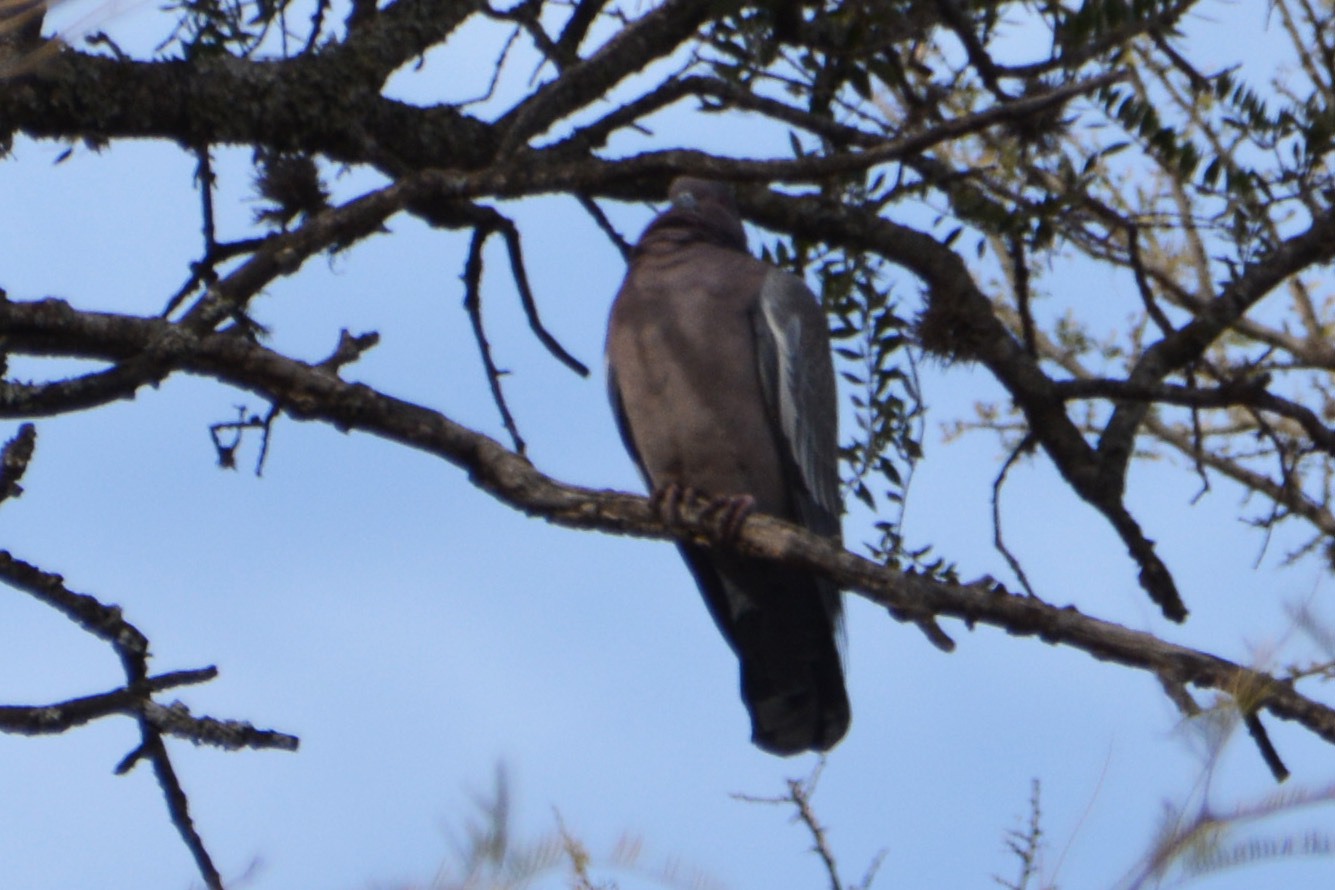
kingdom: Animalia
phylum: Chordata
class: Aves
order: Columbiformes
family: Columbidae
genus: Patagioenas
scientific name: Patagioenas picazuro
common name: Picazuro pigeon
